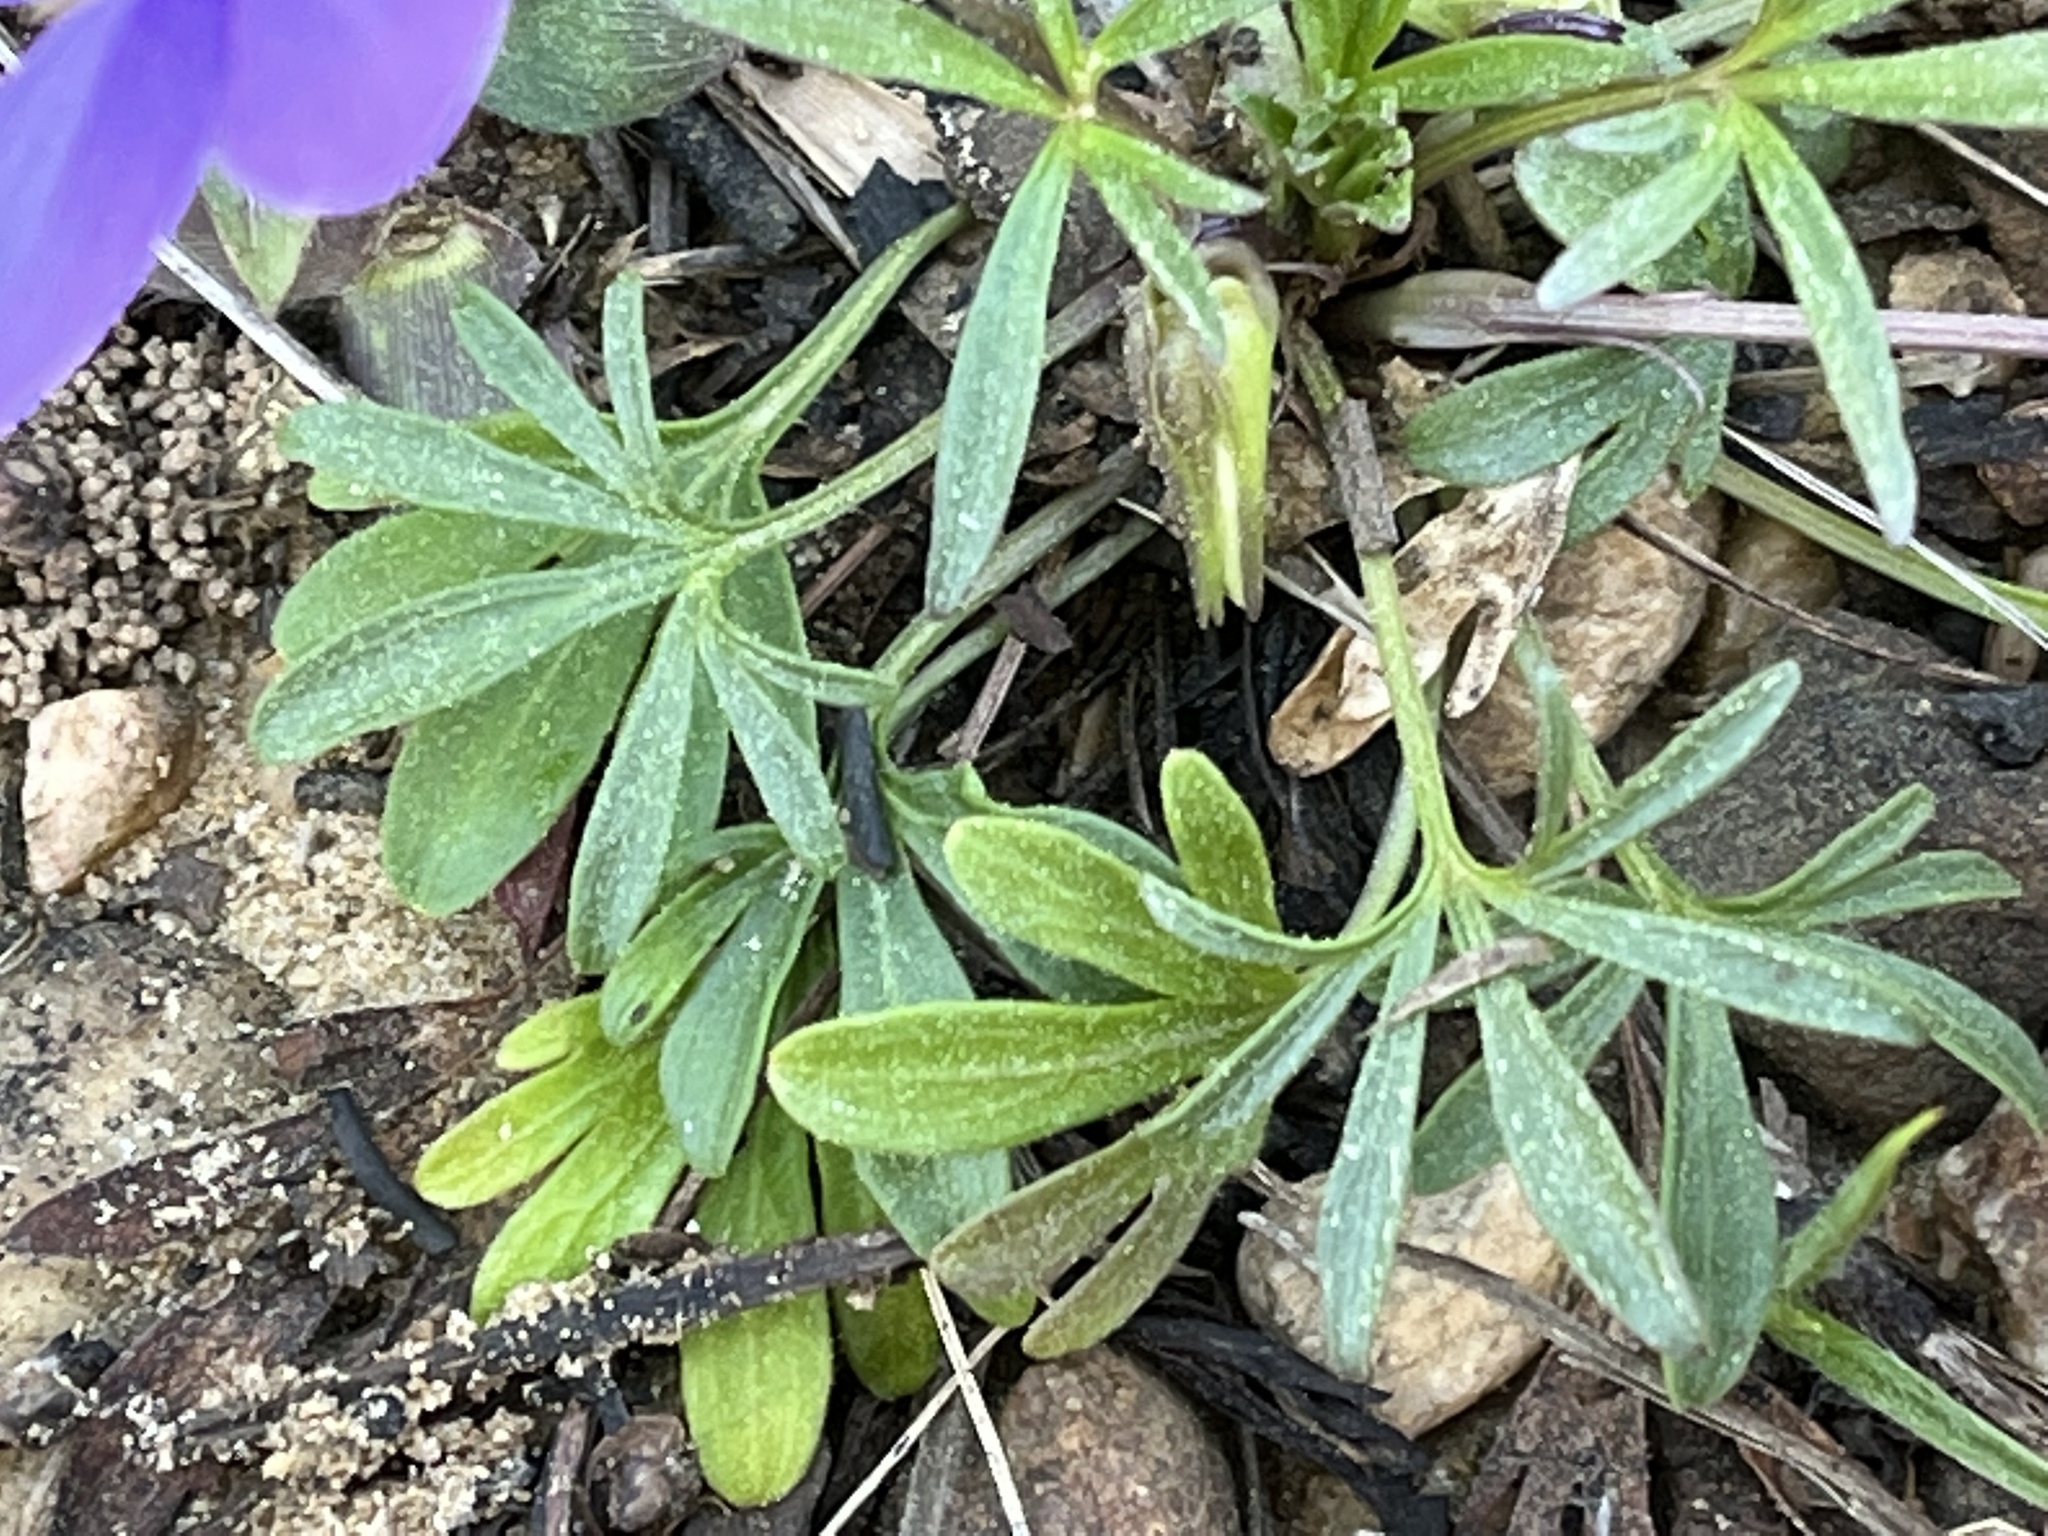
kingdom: Plantae
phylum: Tracheophyta
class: Magnoliopsida
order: Malpighiales
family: Violaceae
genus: Viola
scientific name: Viola pedata
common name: Pansy violet
